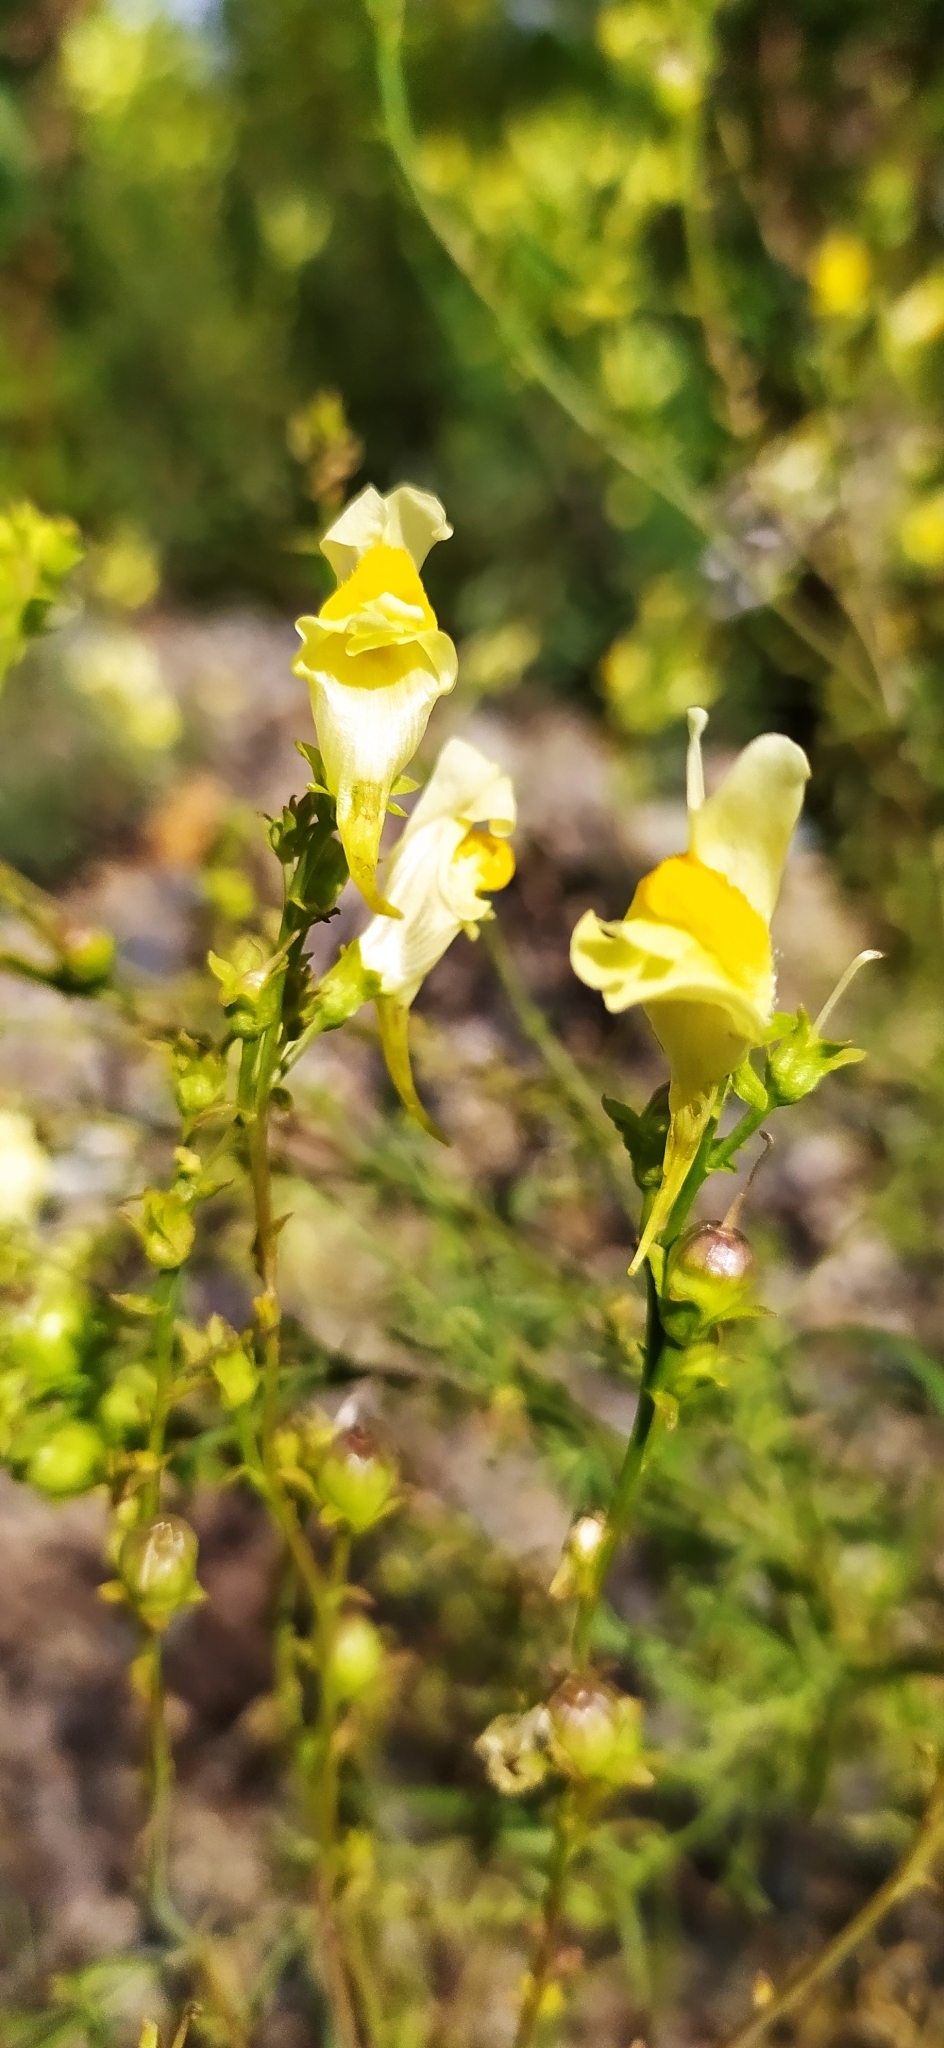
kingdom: Plantae
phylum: Tracheophyta
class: Magnoliopsida
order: Lamiales
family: Plantaginaceae
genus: Linaria
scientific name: Linaria vulgaris
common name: Butter and eggs
